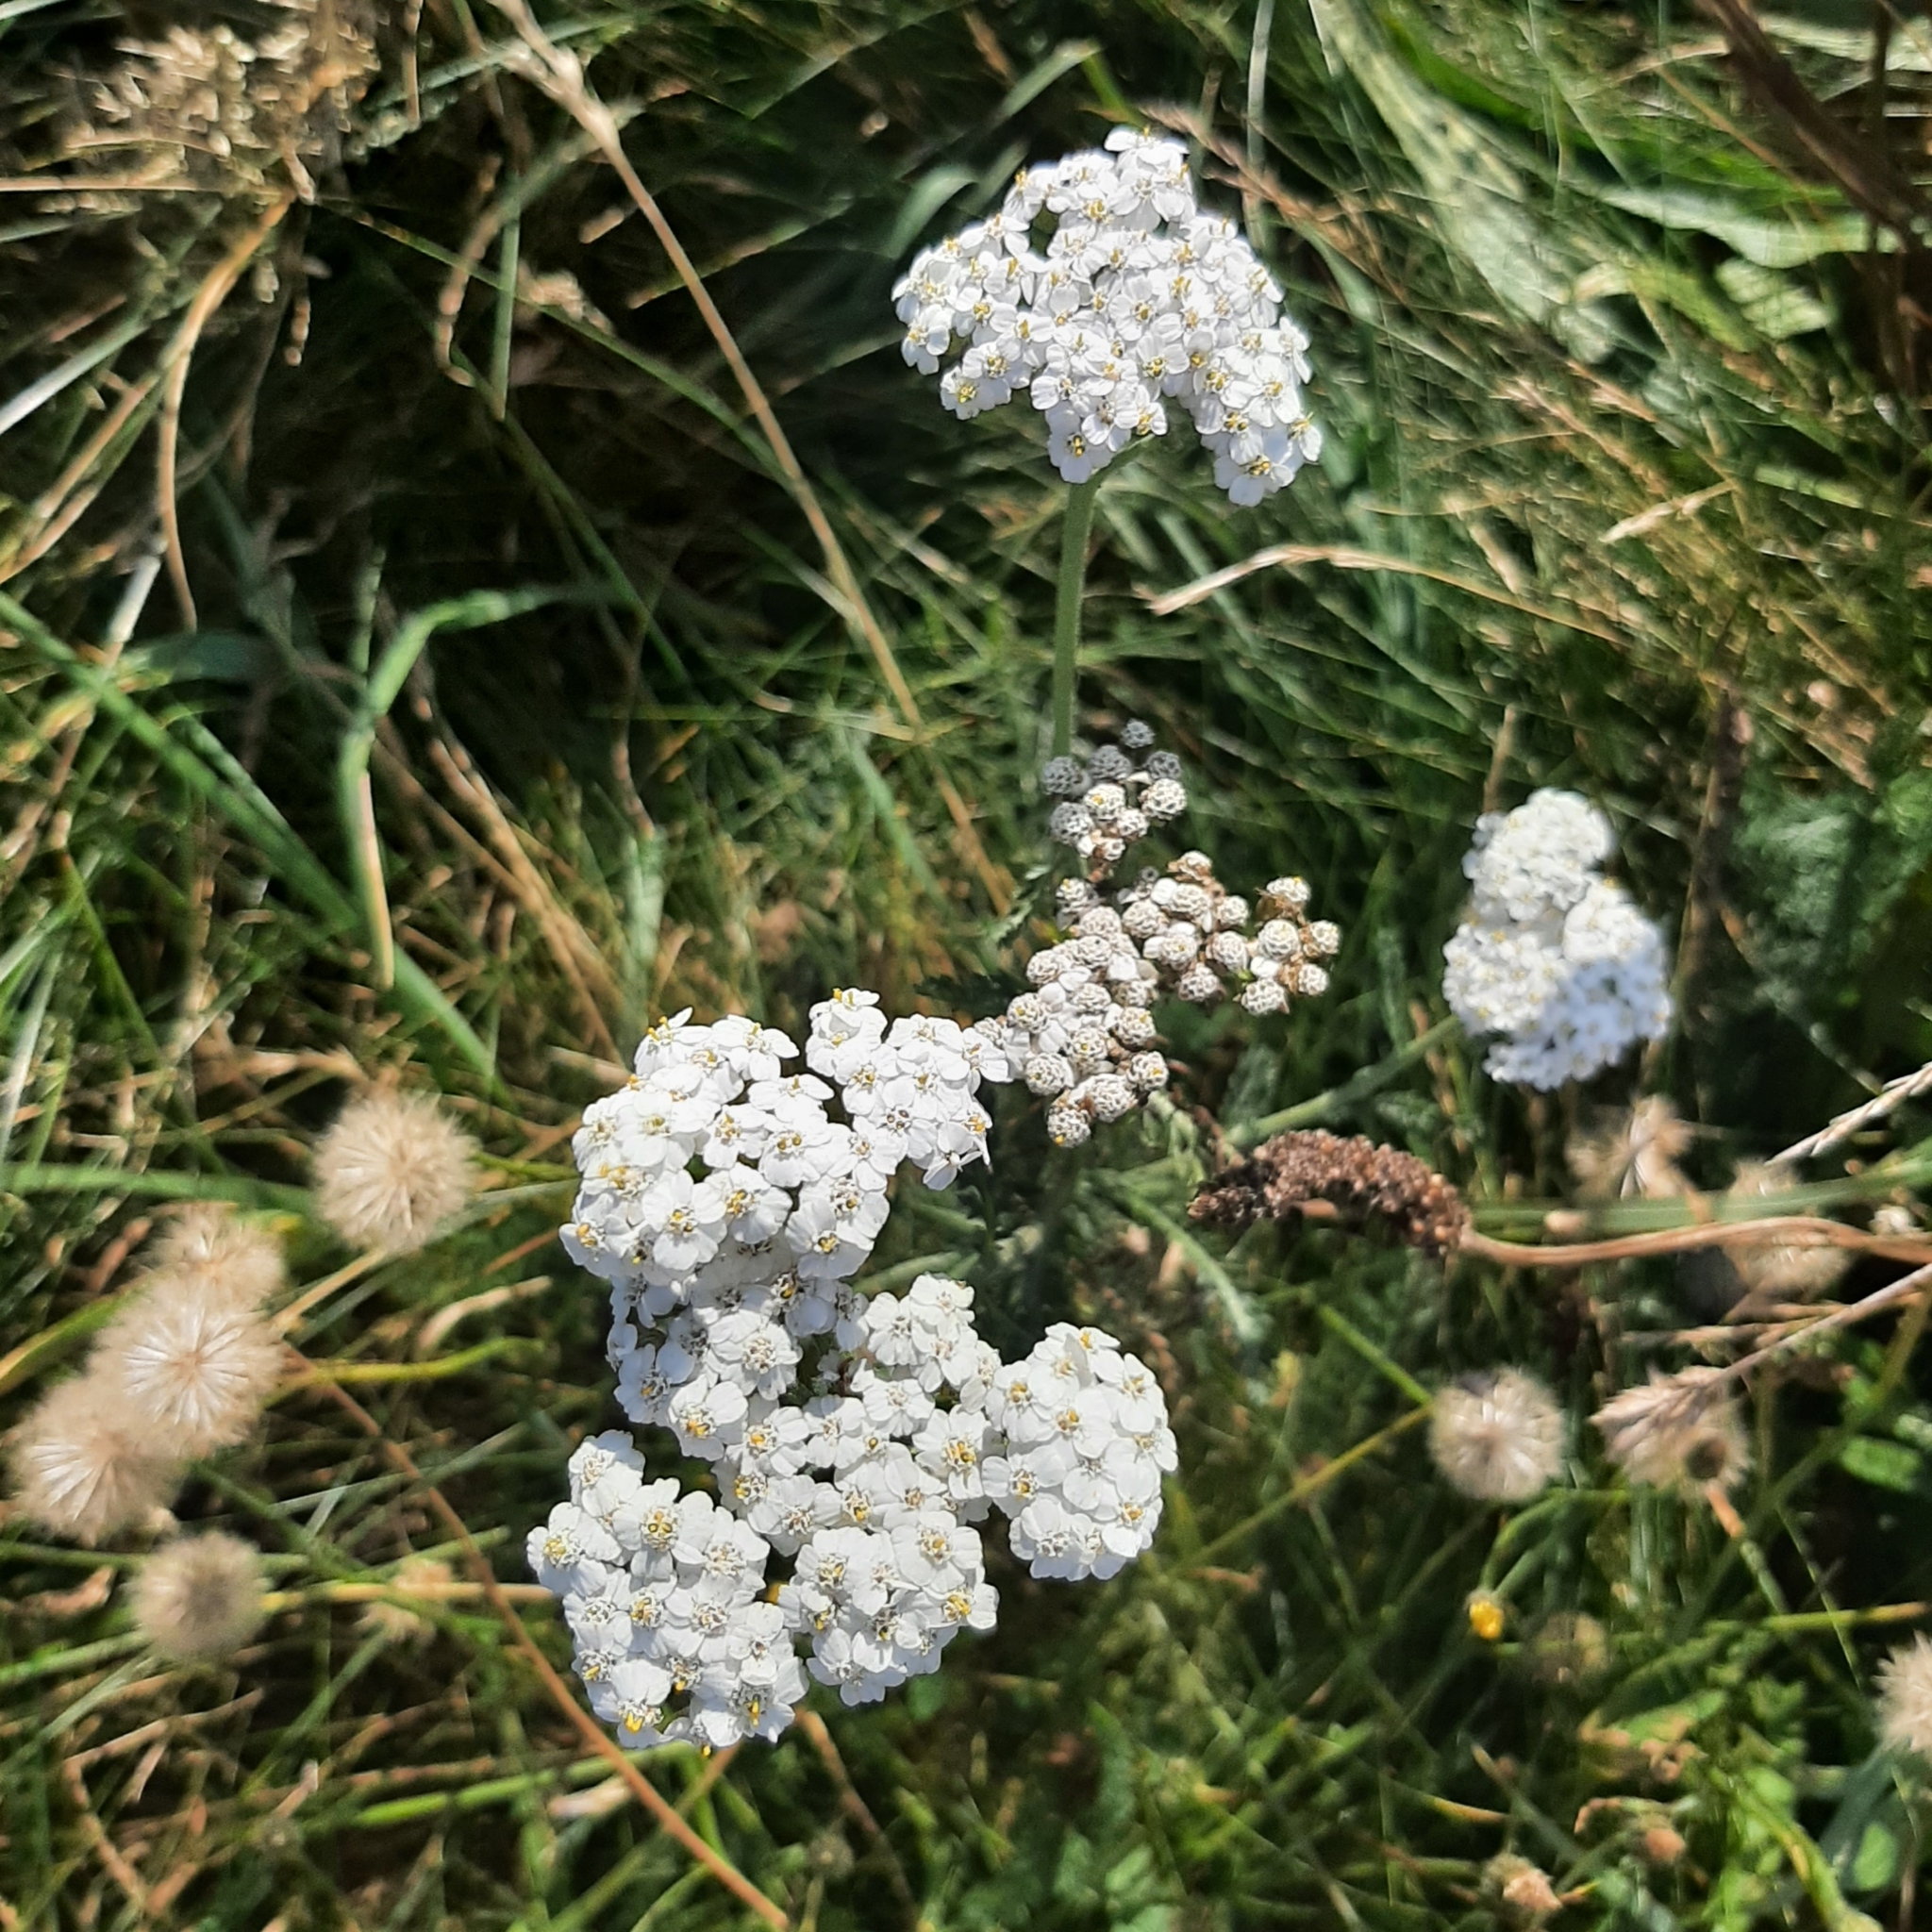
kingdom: Plantae
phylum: Tracheophyta
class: Magnoliopsida
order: Asterales
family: Asteraceae
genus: Achillea
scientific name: Achillea millefolium
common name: Yarrow
